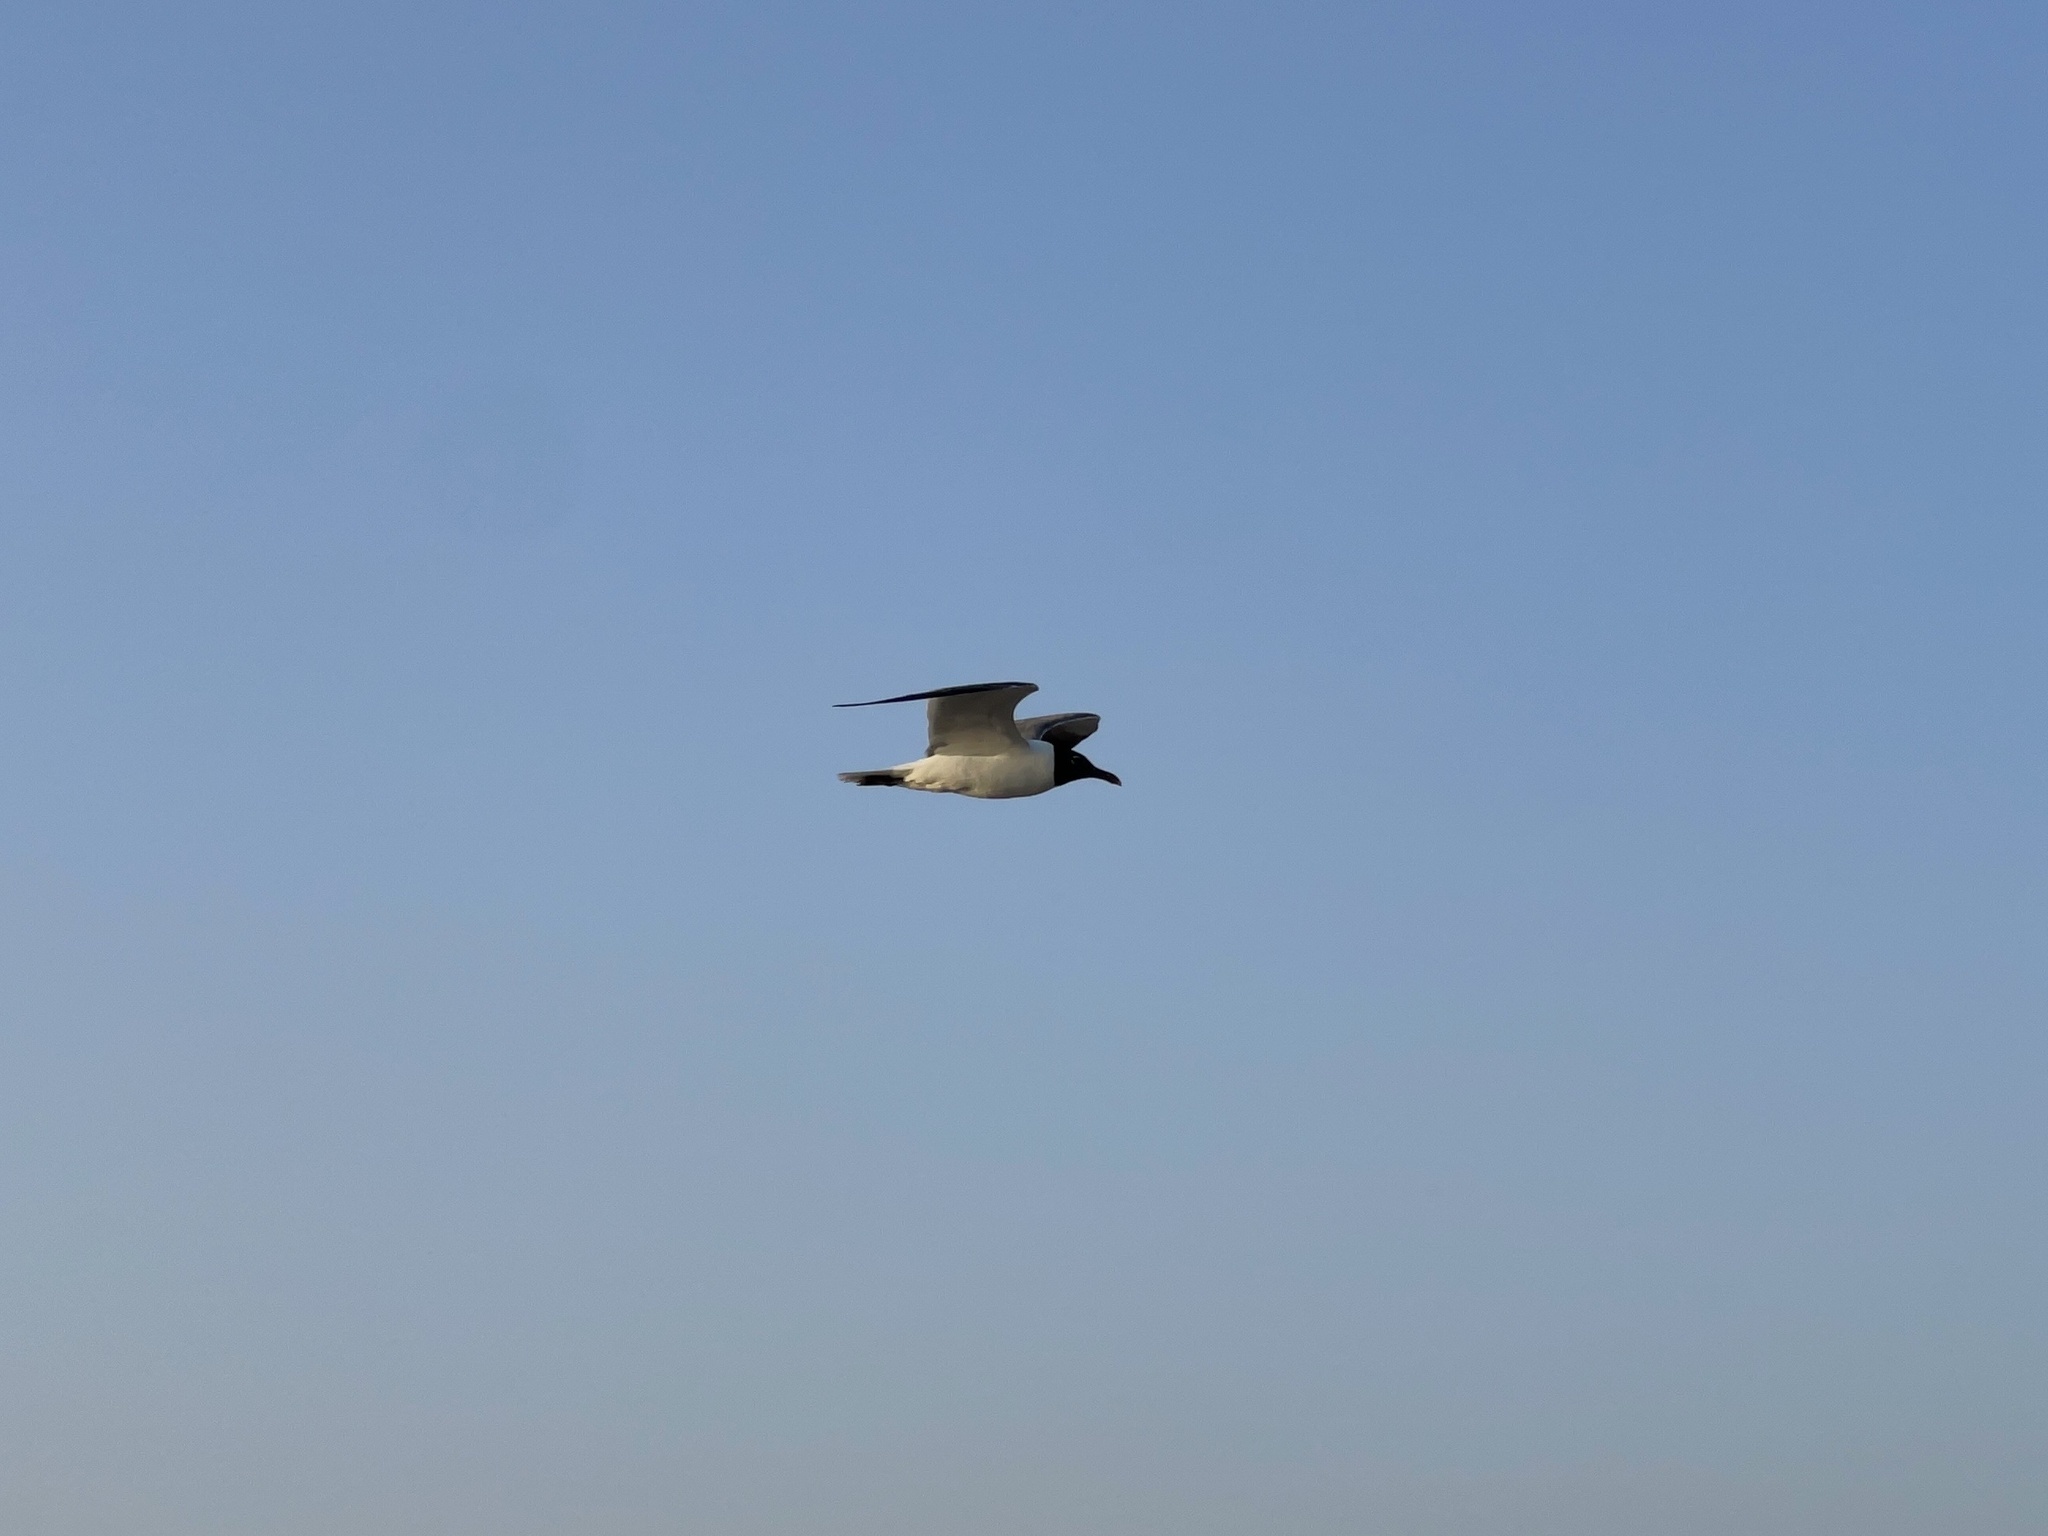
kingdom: Animalia
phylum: Chordata
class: Aves
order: Charadriiformes
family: Laridae
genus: Leucophaeus
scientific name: Leucophaeus atricilla
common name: Laughing gull
